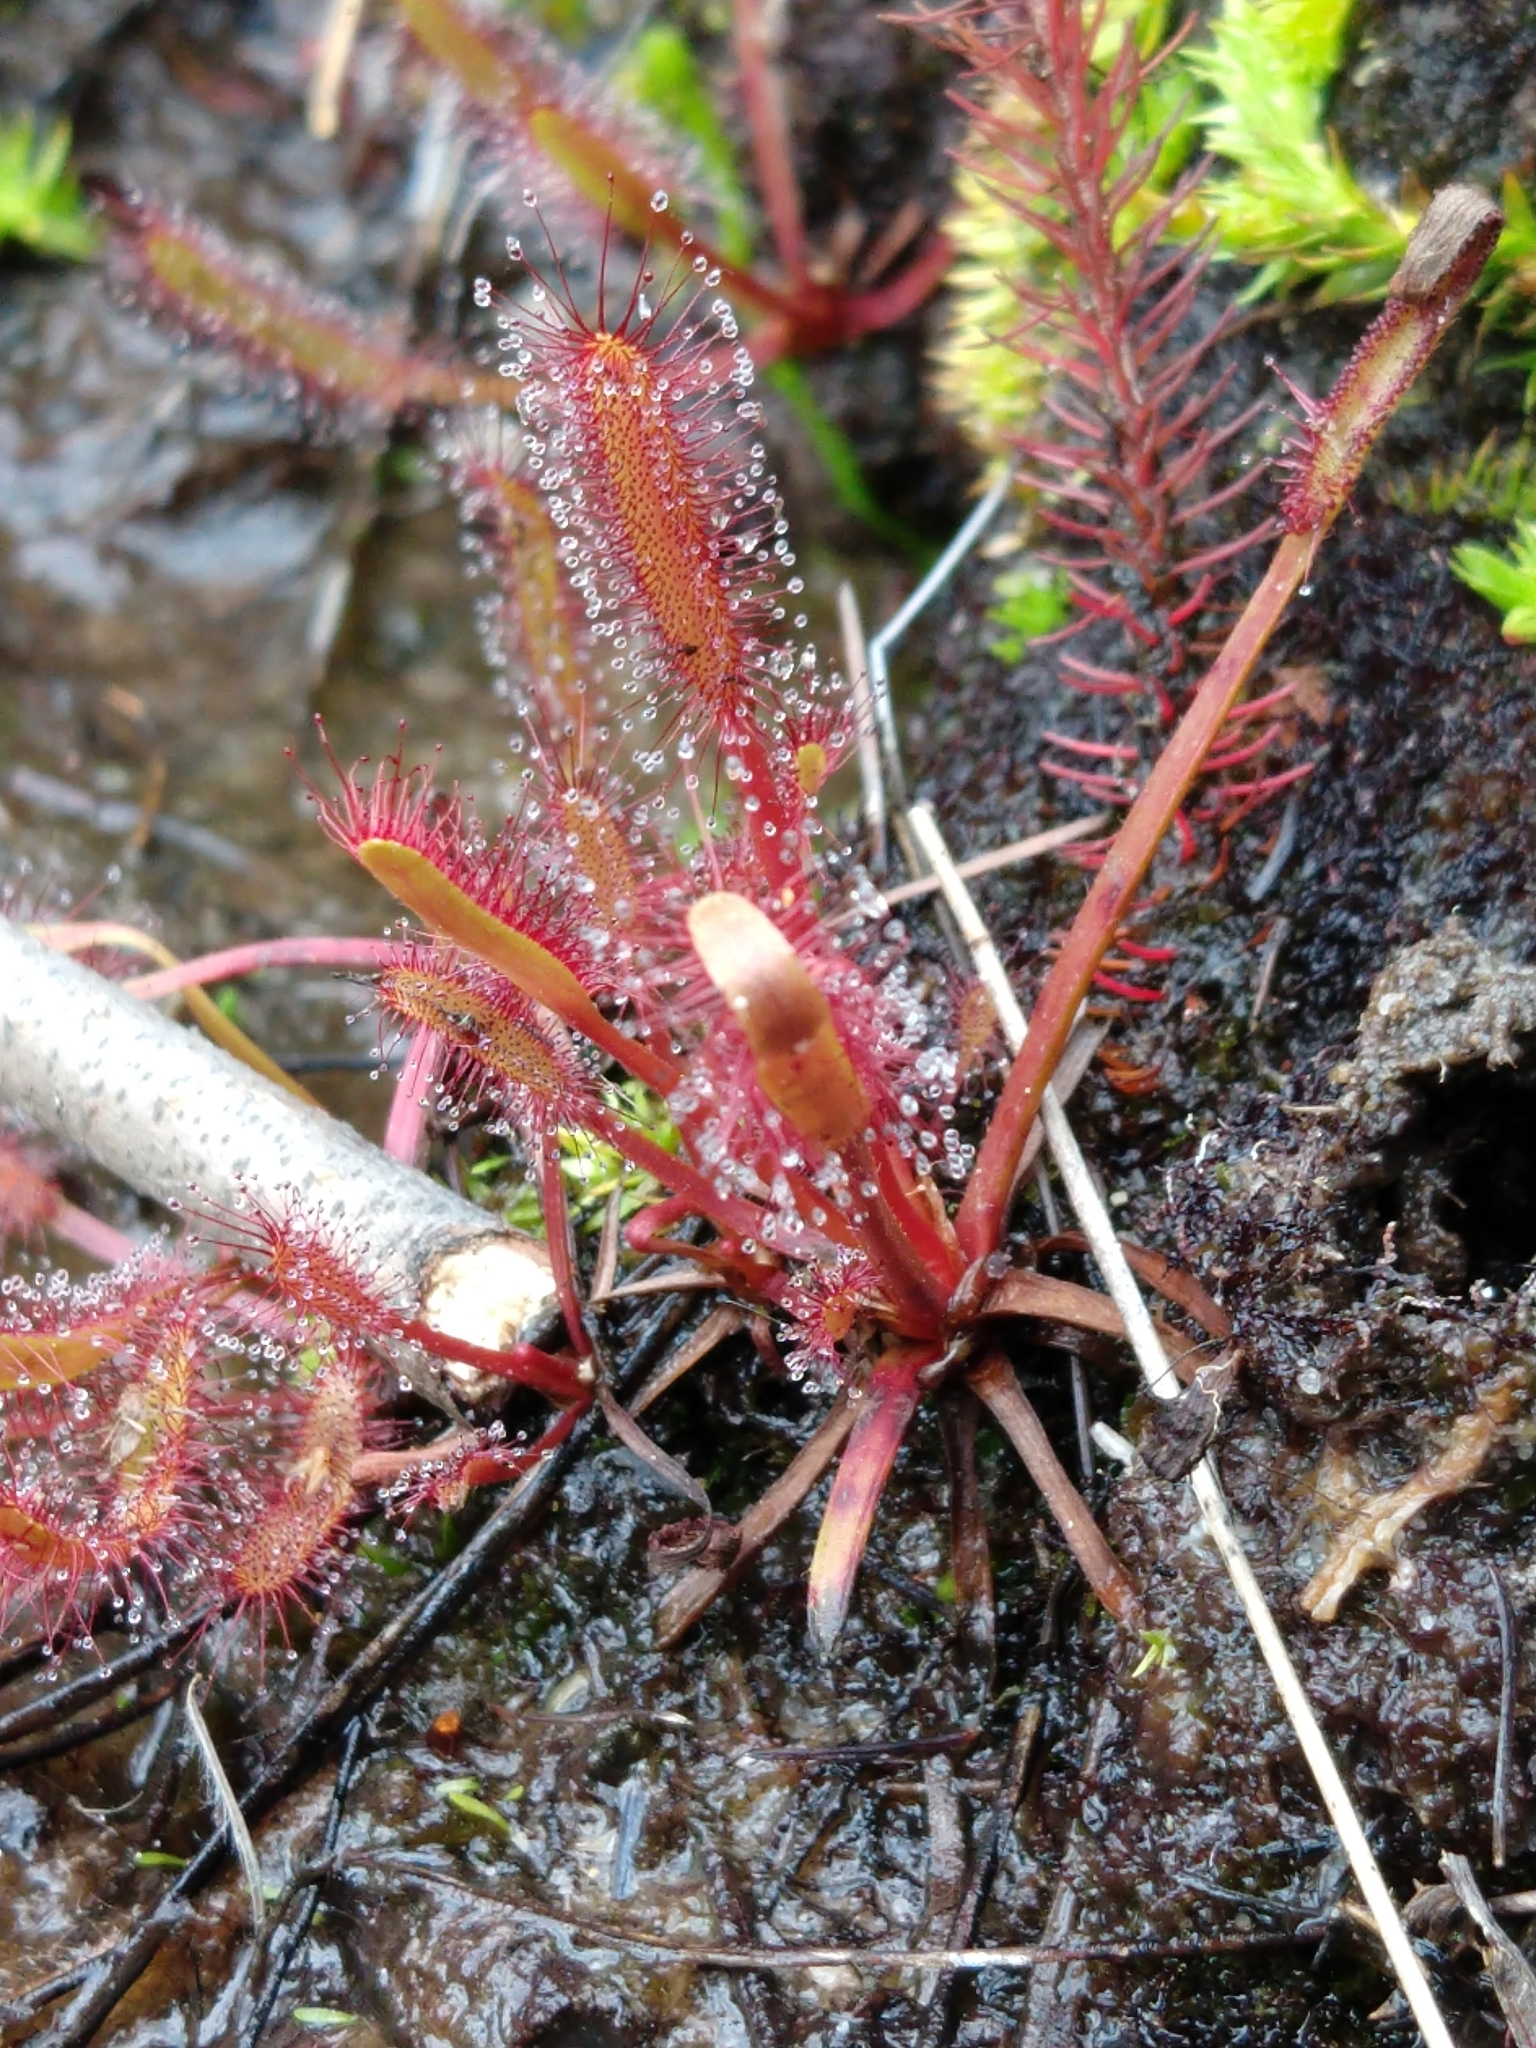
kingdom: Plantae
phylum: Tracheophyta
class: Magnoliopsida
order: Caryophyllales
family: Droseraceae
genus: Drosera
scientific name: Drosera capensis
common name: Cape sundew
